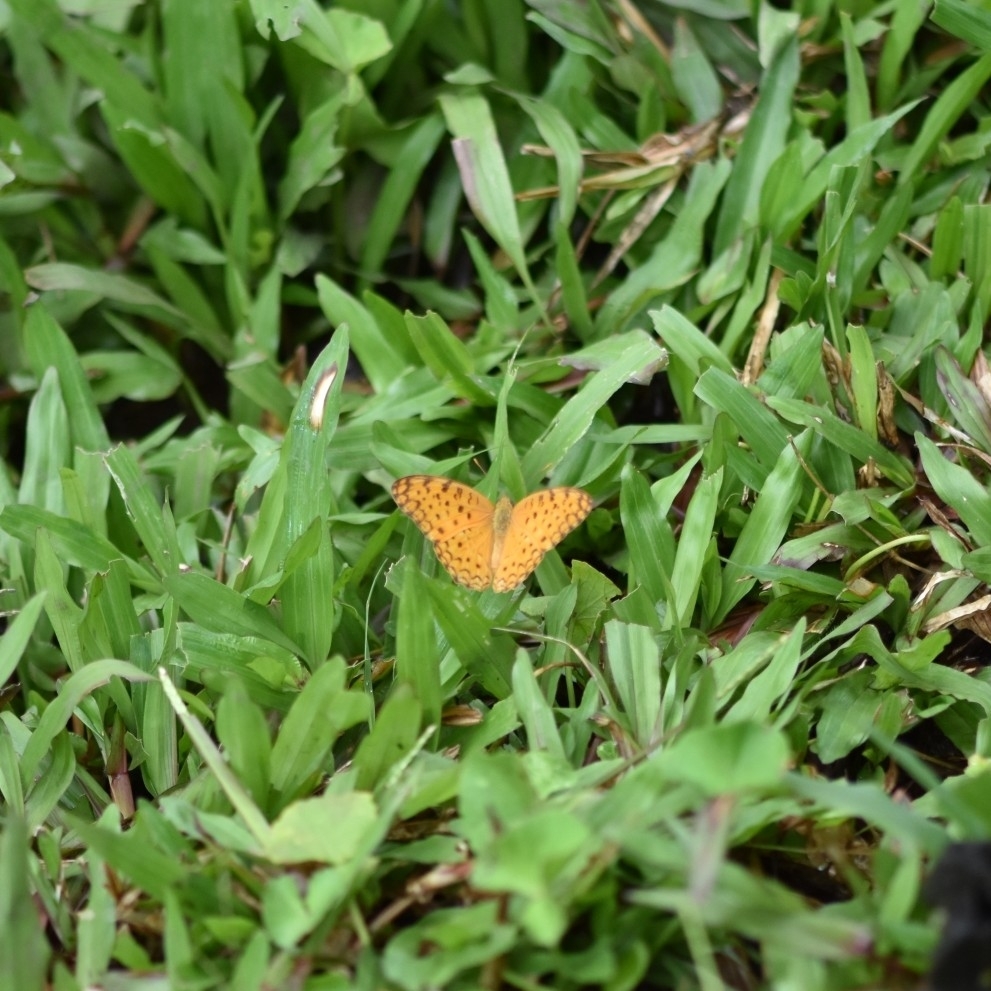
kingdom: Animalia
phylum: Arthropoda
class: Insecta
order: Lepidoptera
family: Nymphalidae
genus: Phalanta
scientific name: Phalanta phalantha
